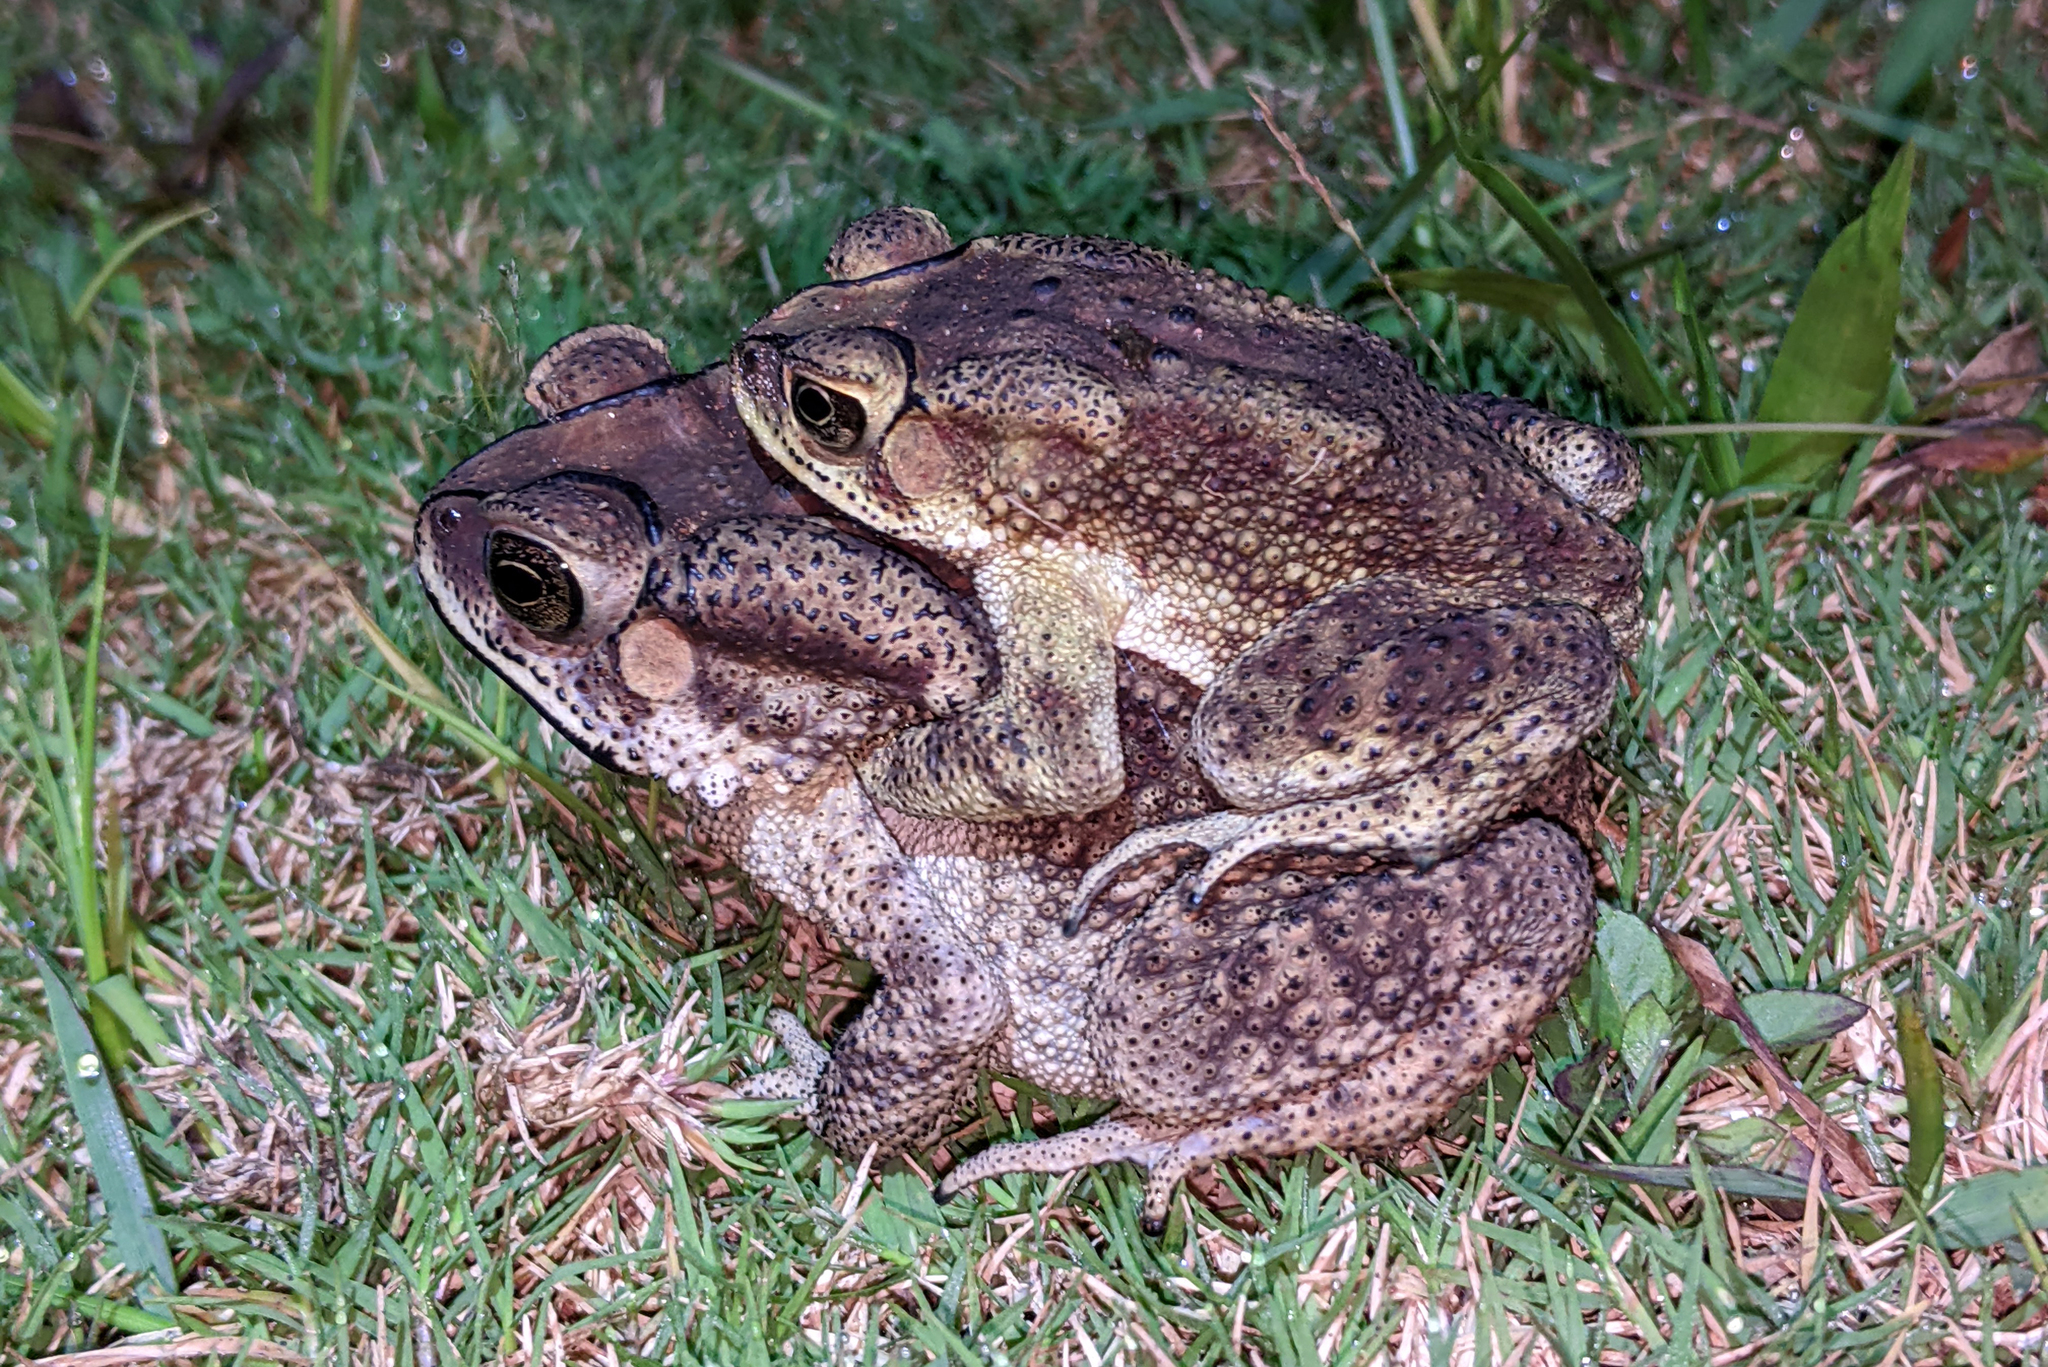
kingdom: Animalia
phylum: Chordata
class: Amphibia
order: Anura
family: Bufonidae
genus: Duttaphrynus
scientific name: Duttaphrynus melanostictus
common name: Common sunda toad
